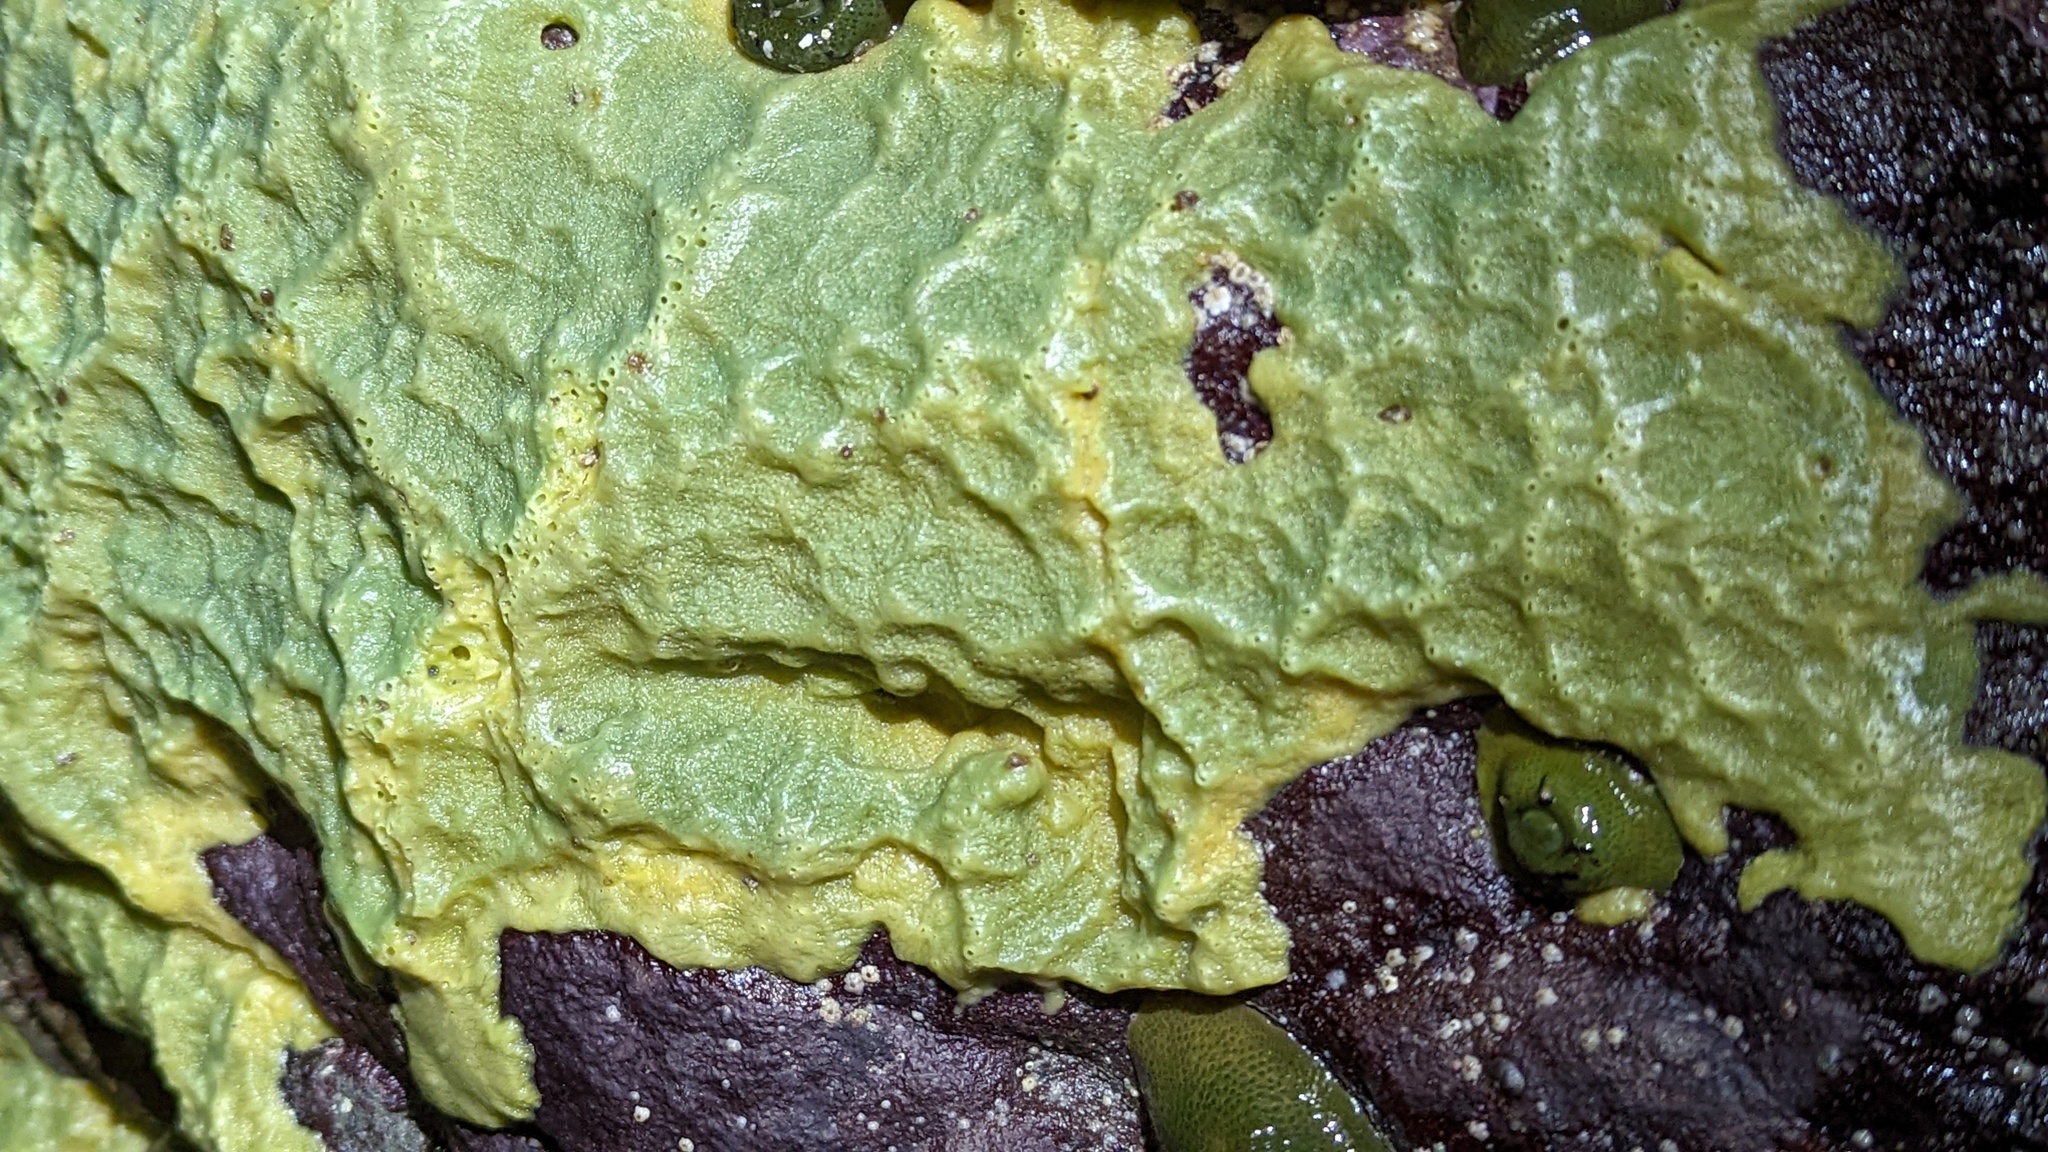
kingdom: Animalia
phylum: Porifera
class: Demospongiae
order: Suberitida
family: Halichondriidae
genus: Halichondria
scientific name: Halichondria panicea
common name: Breadcrumb sponge
